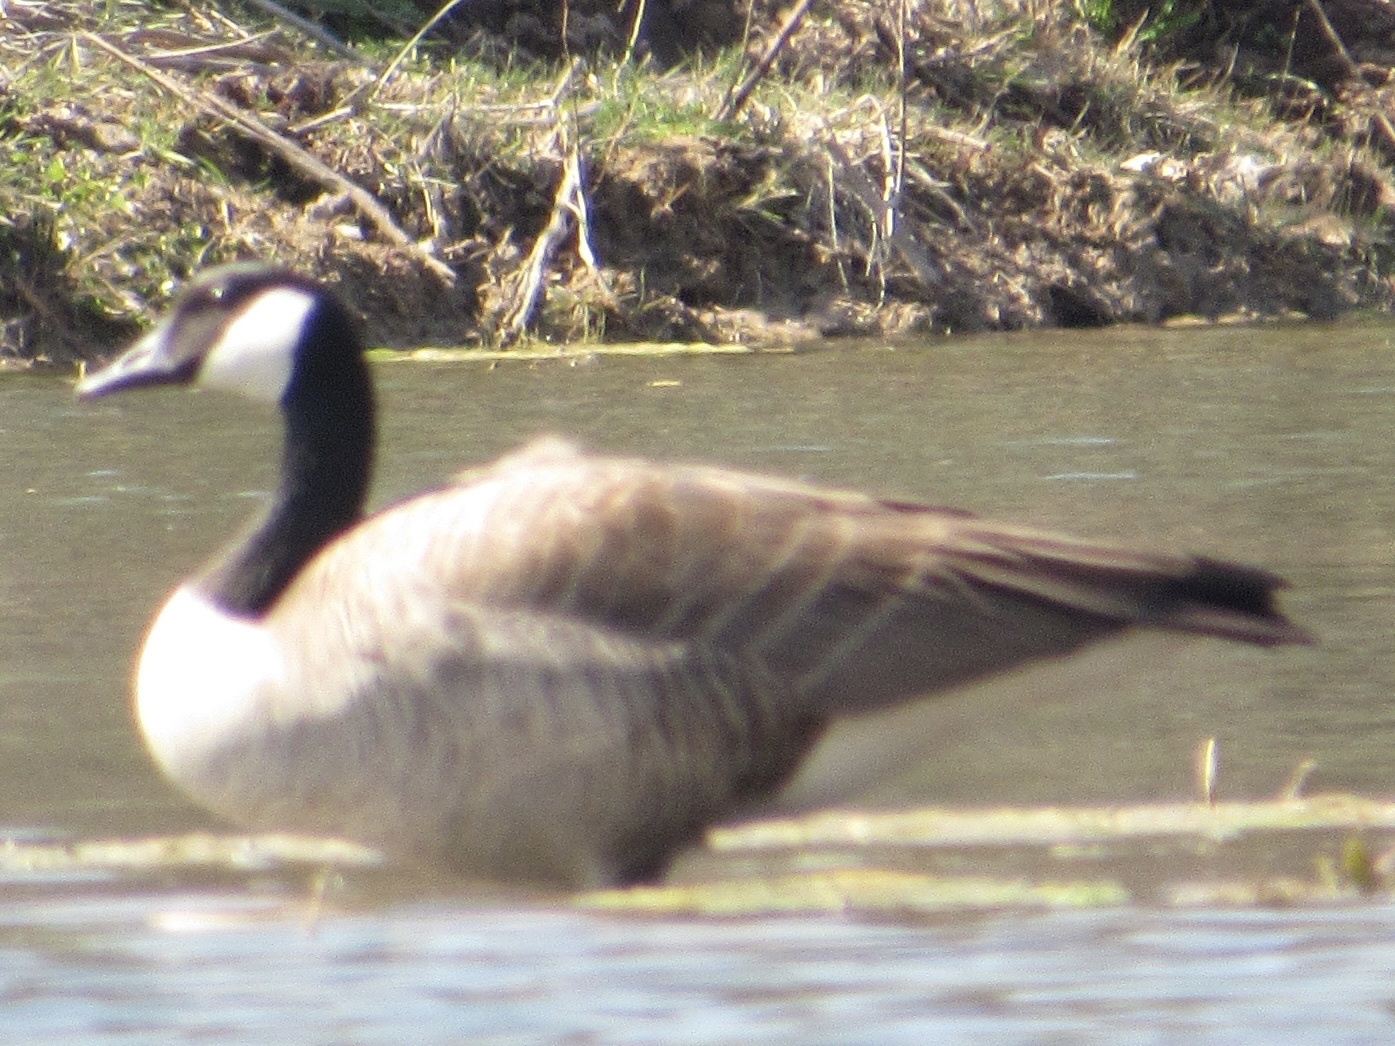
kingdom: Animalia
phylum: Chordata
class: Aves
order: Anseriformes
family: Anatidae
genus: Branta
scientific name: Branta canadensis
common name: Canada goose
